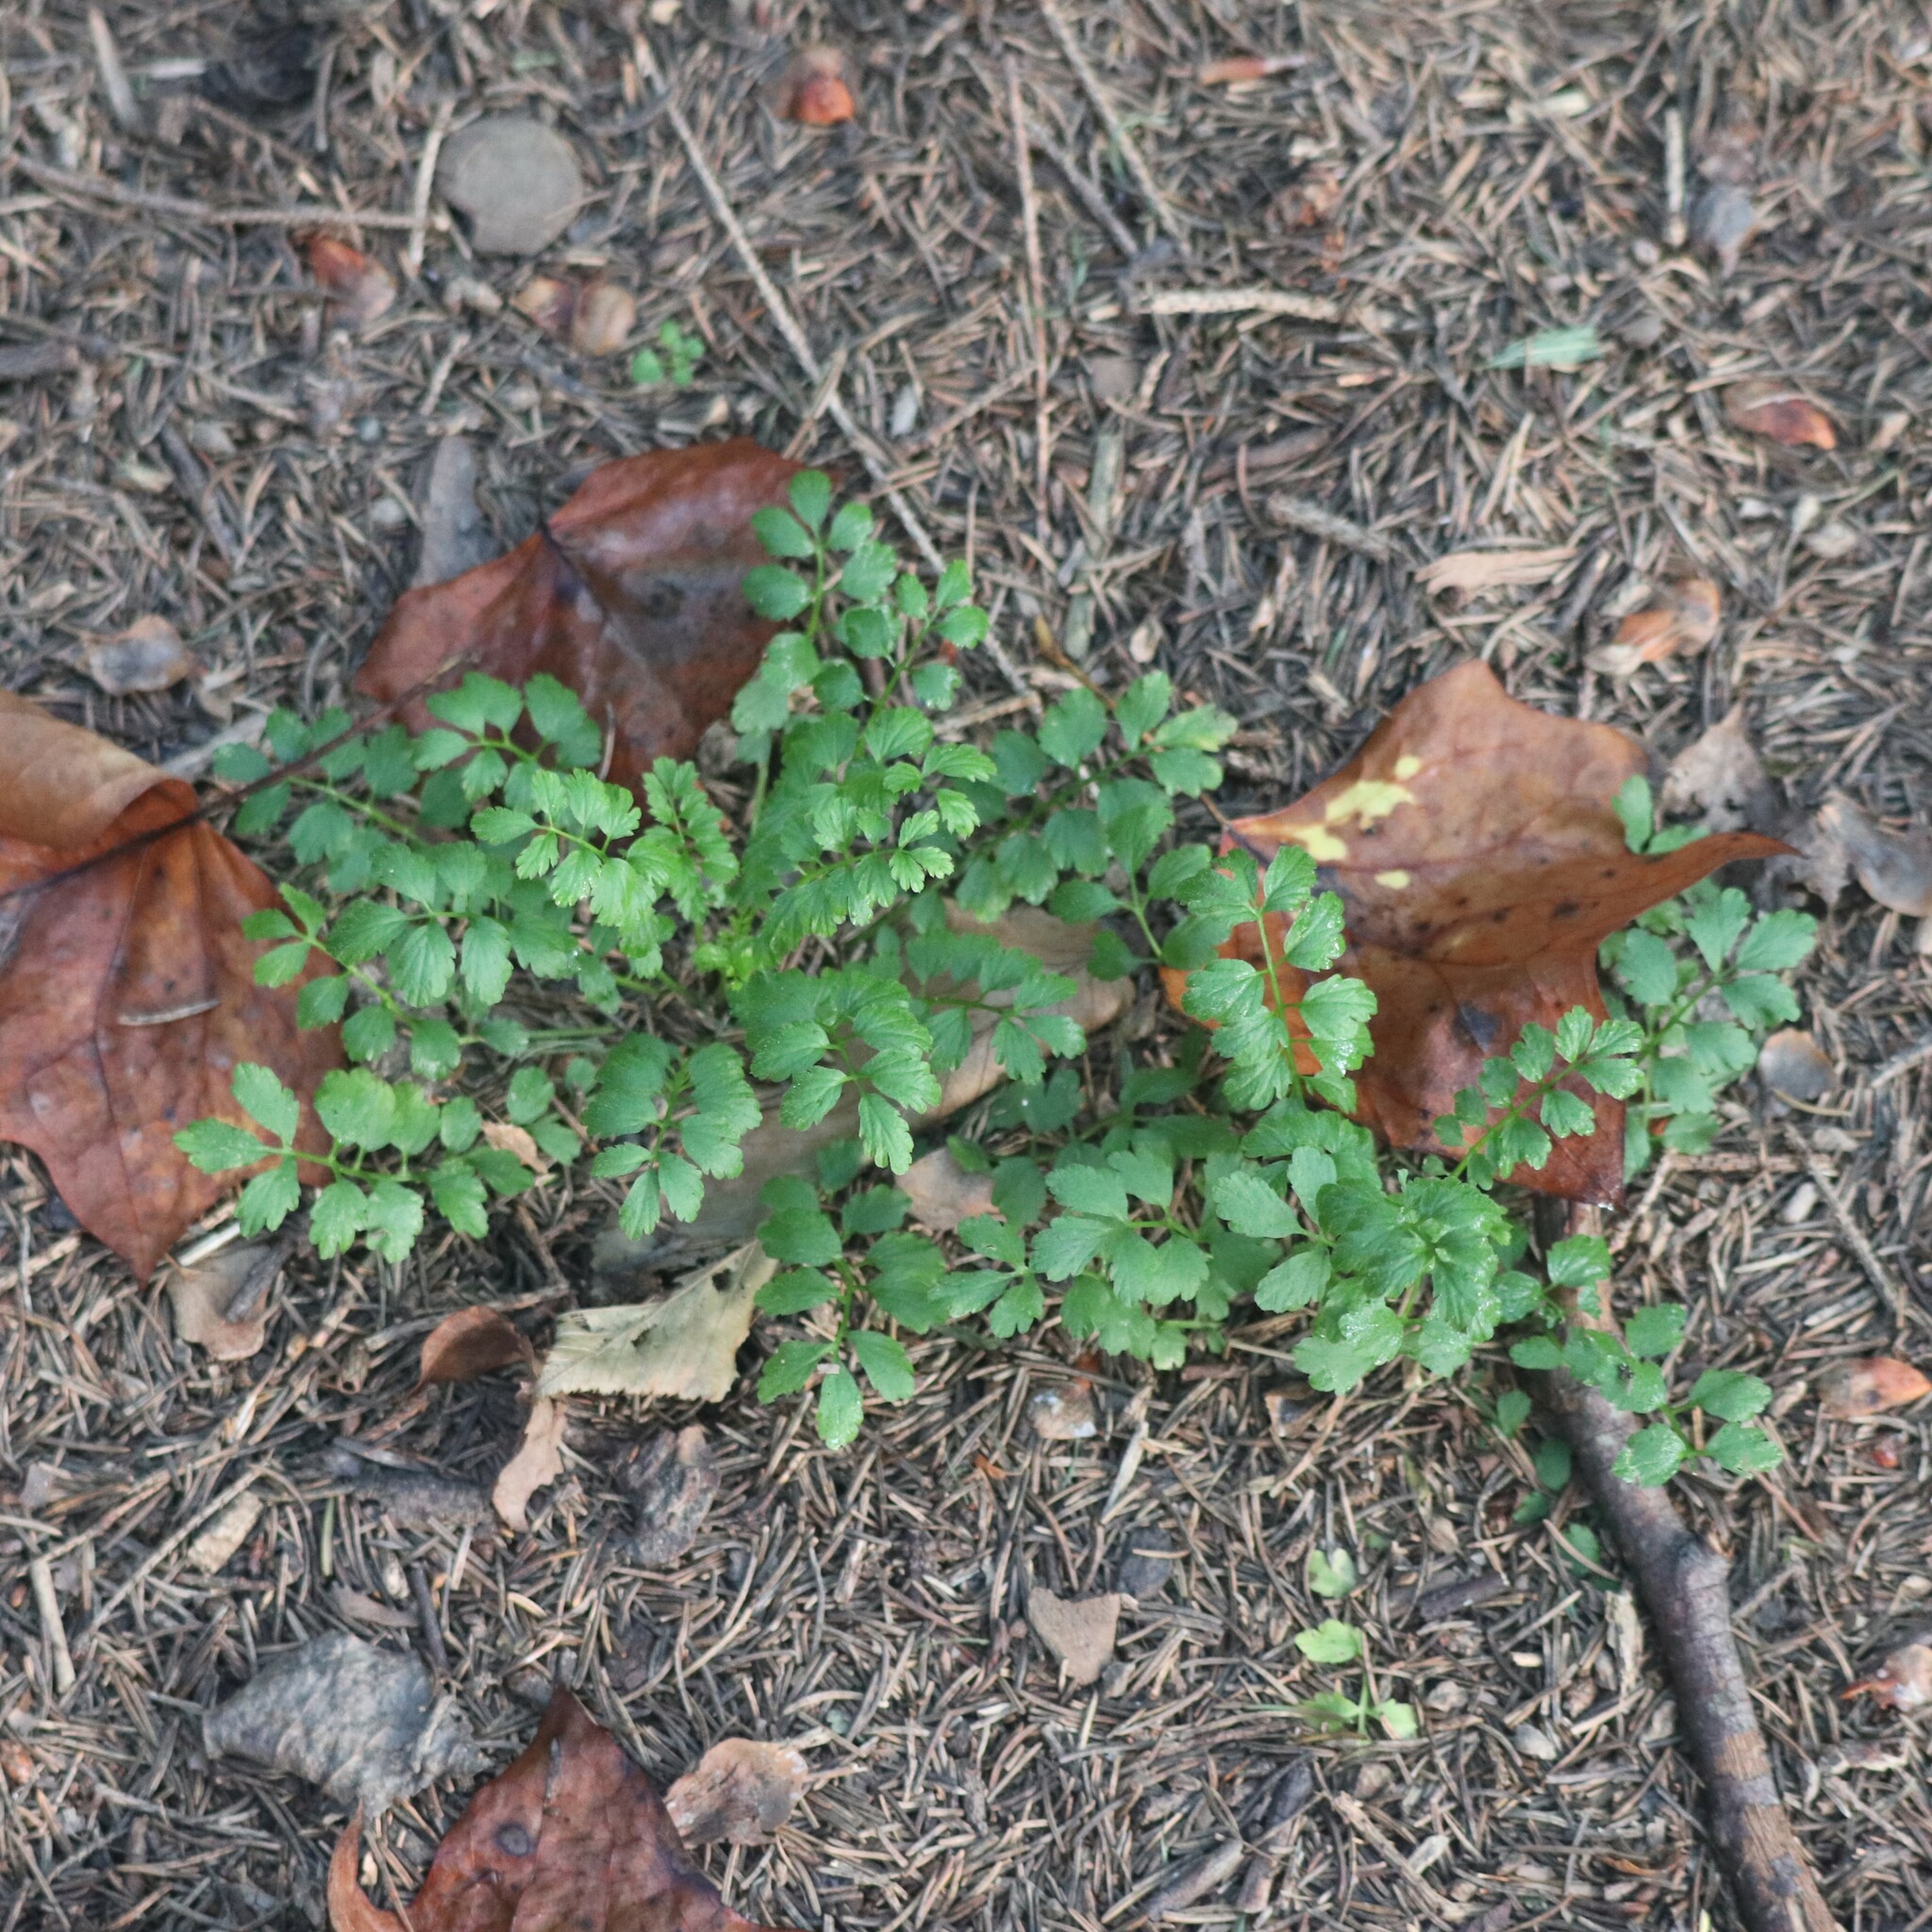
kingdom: Plantae
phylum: Tracheophyta
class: Magnoliopsida
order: Brassicales
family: Brassicaceae
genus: Cardamine
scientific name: Cardamine impatiens
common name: Narrow-leaved bitter-cress
